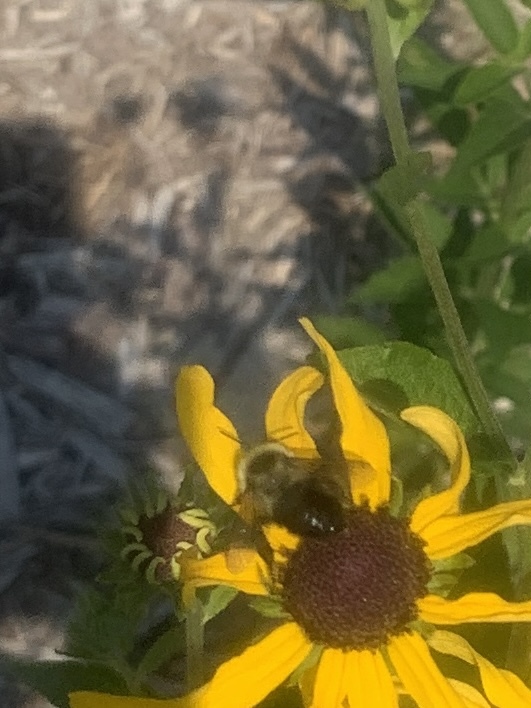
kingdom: Animalia
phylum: Arthropoda
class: Insecta
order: Hymenoptera
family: Apidae
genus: Bombus
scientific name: Bombus impatiens
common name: Common eastern bumble bee
